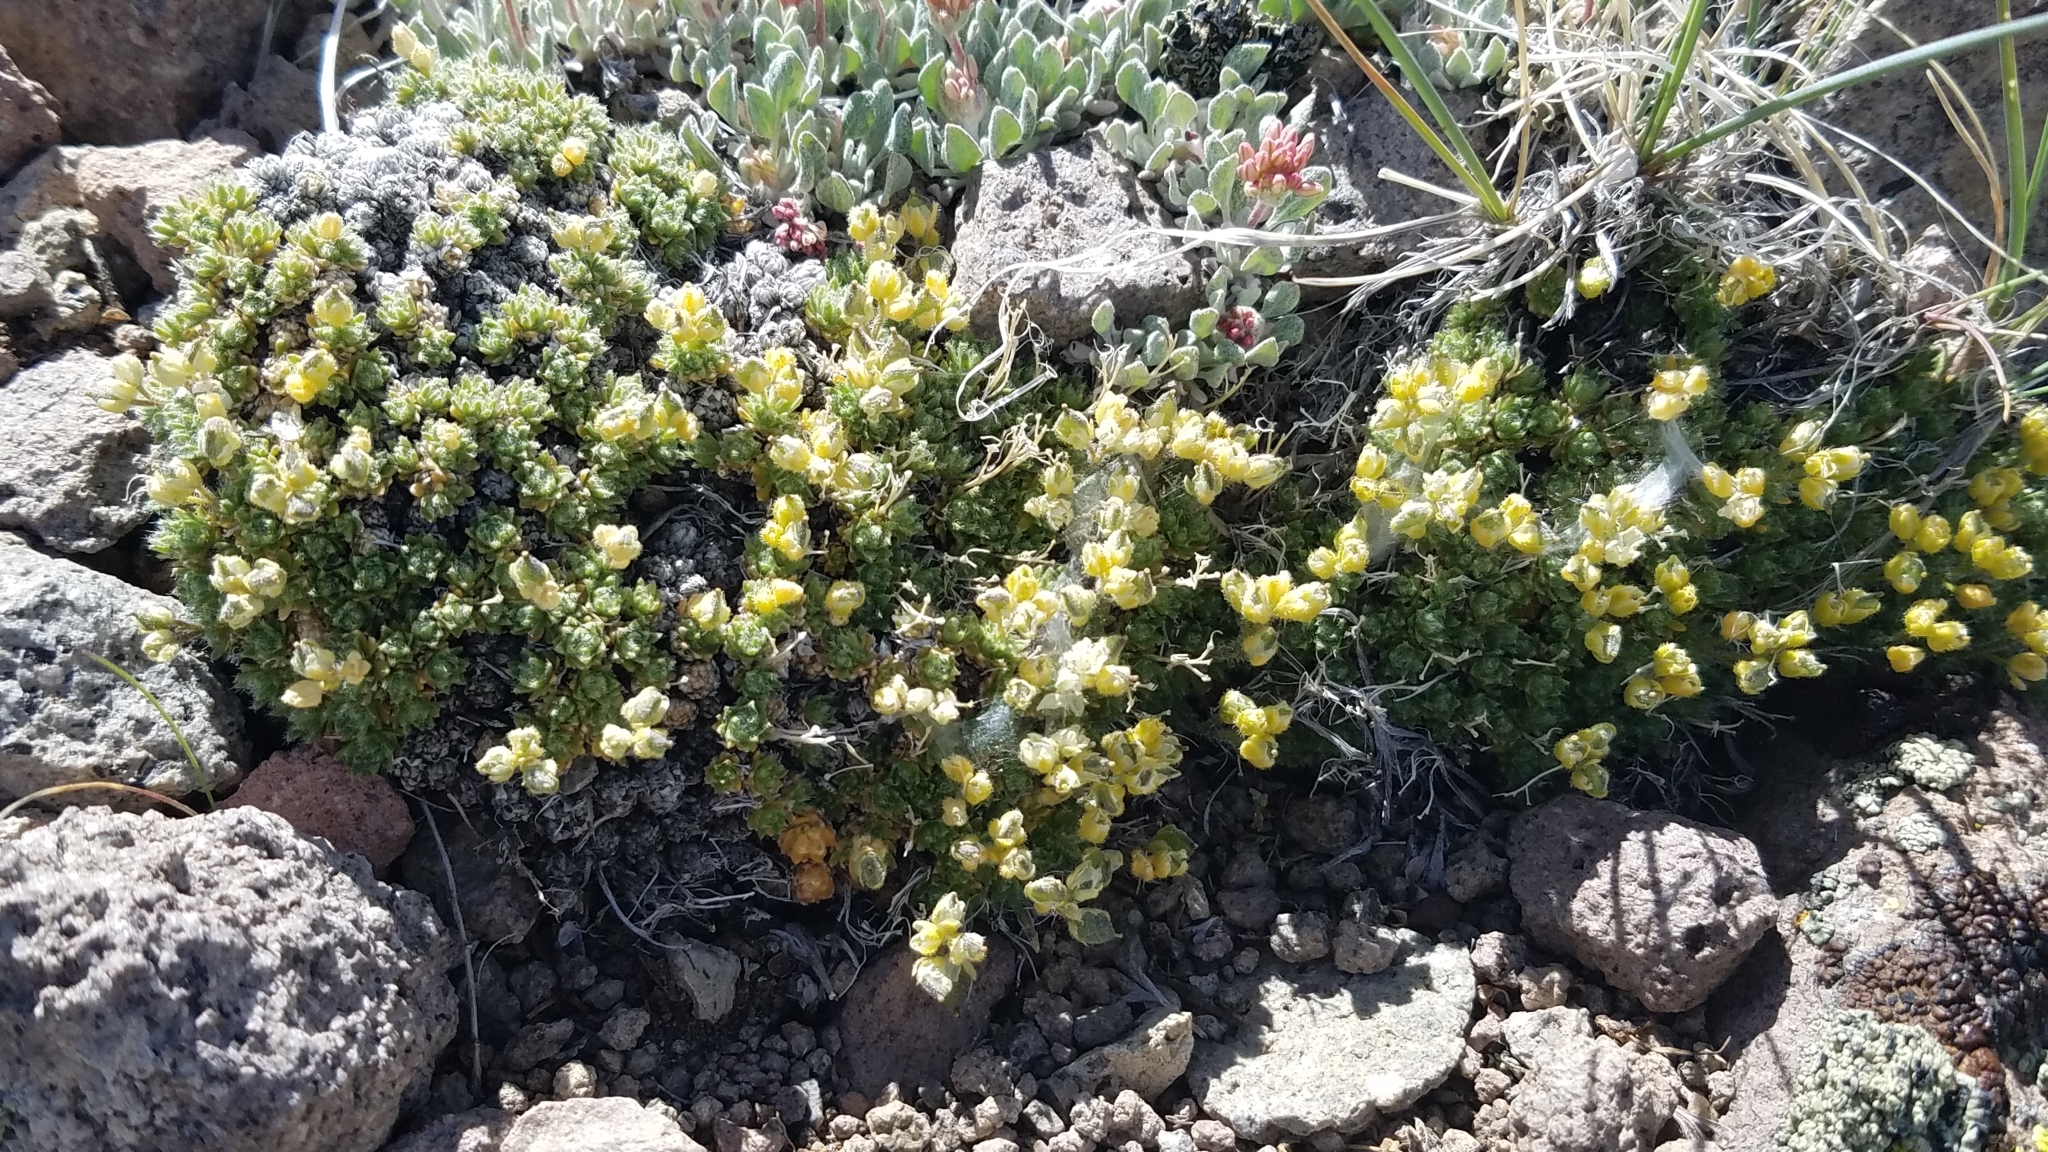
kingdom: Plantae
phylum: Tracheophyta
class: Magnoliopsida
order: Brassicales
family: Brassicaceae
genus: Draba
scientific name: Draba oligosperma
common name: Few-seed draba
